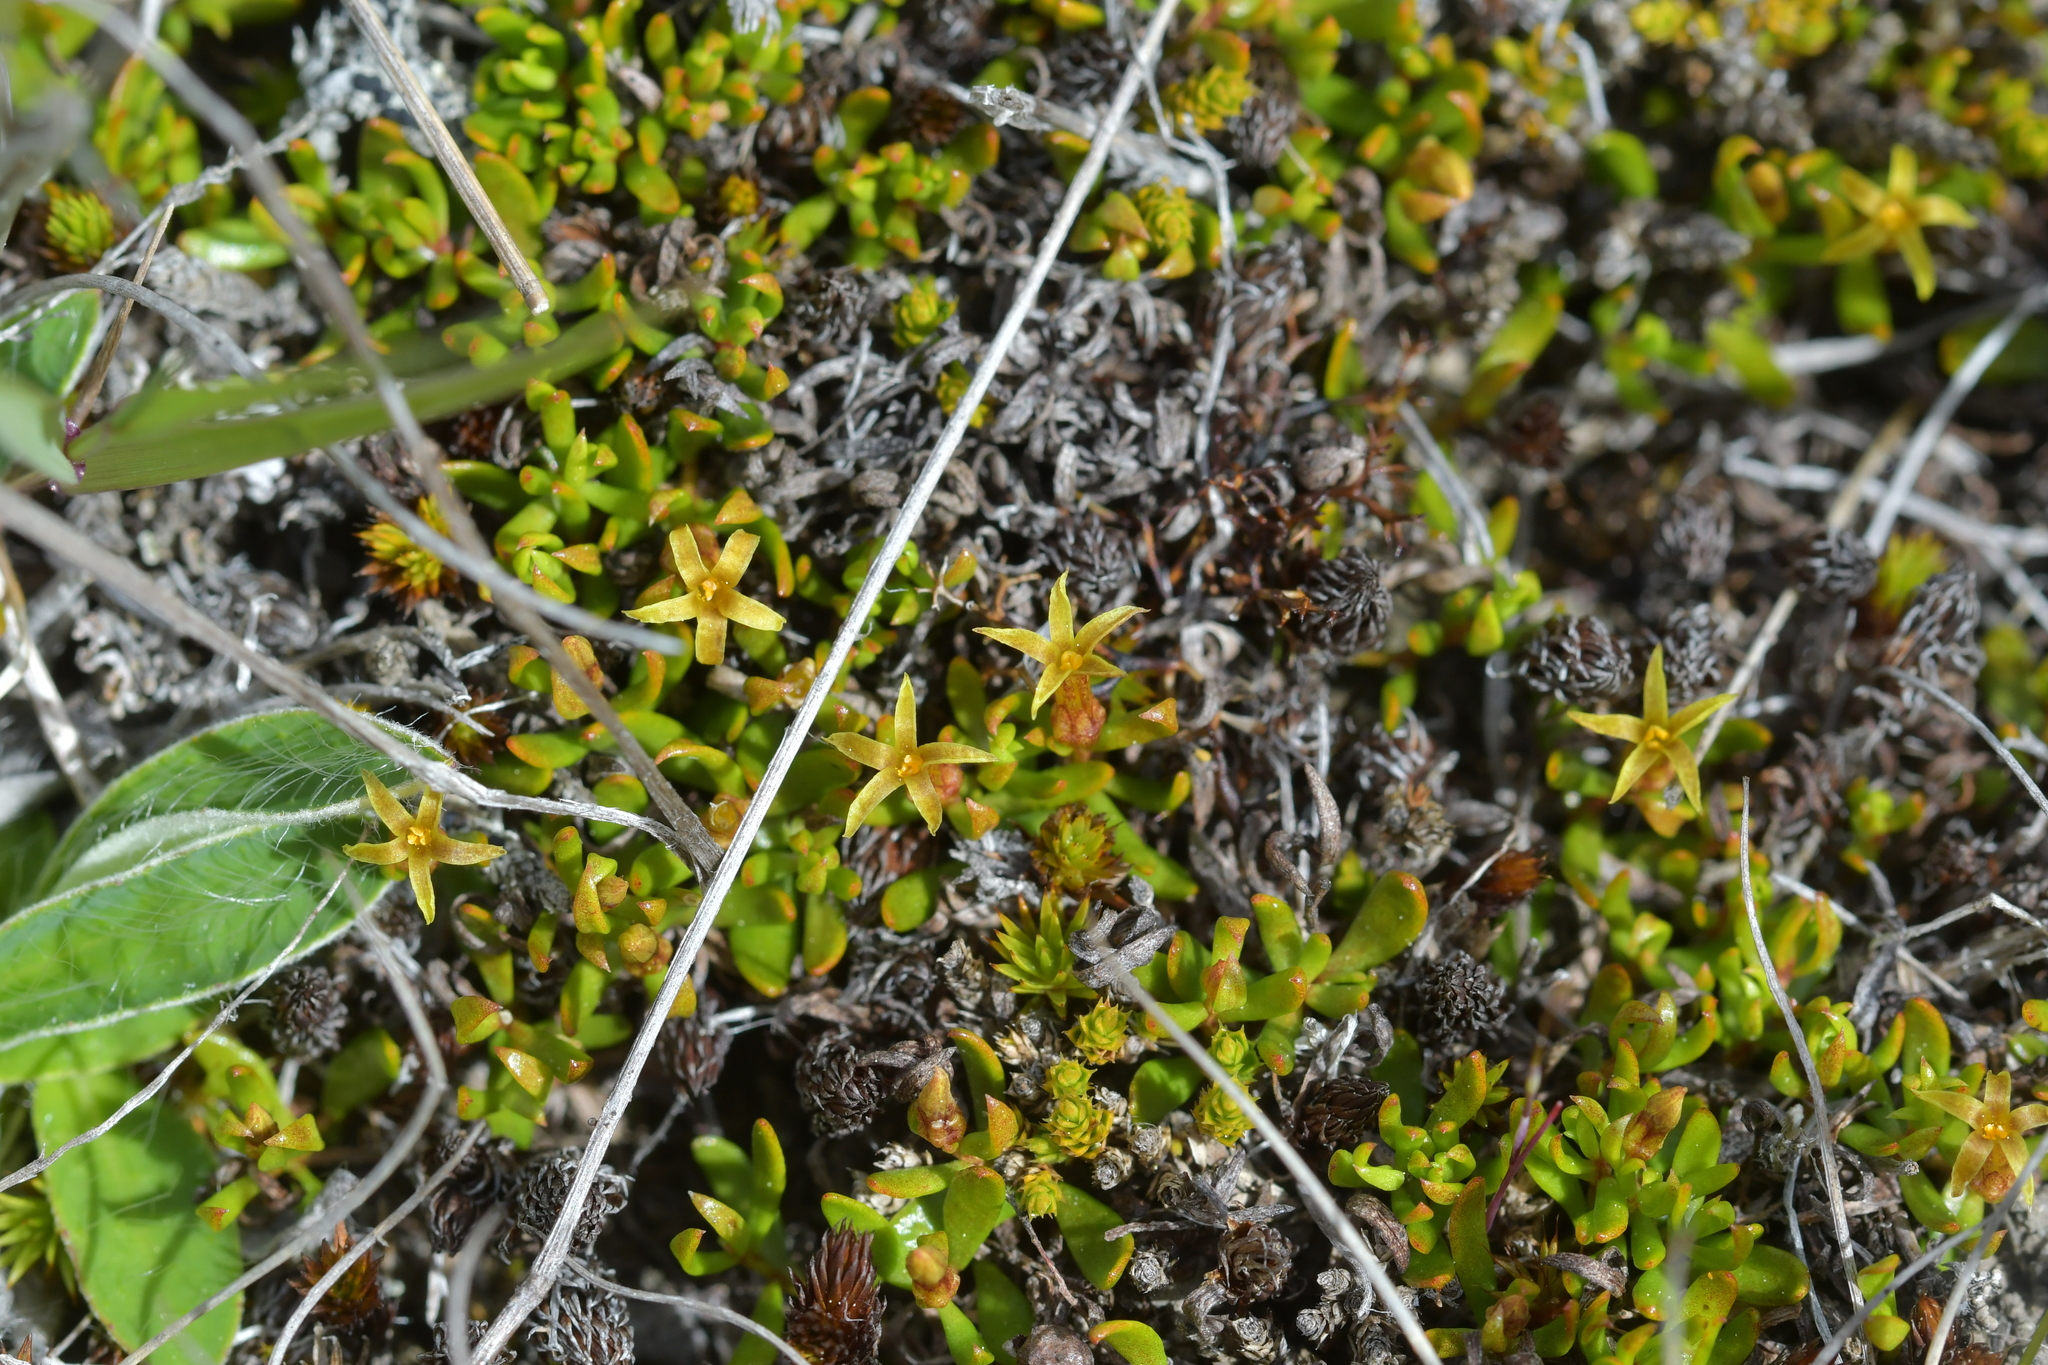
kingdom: Plantae
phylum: Tracheophyta
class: Magnoliopsida
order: Celastrales
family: Celastraceae
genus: Stackhousia
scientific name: Stackhousia minima
